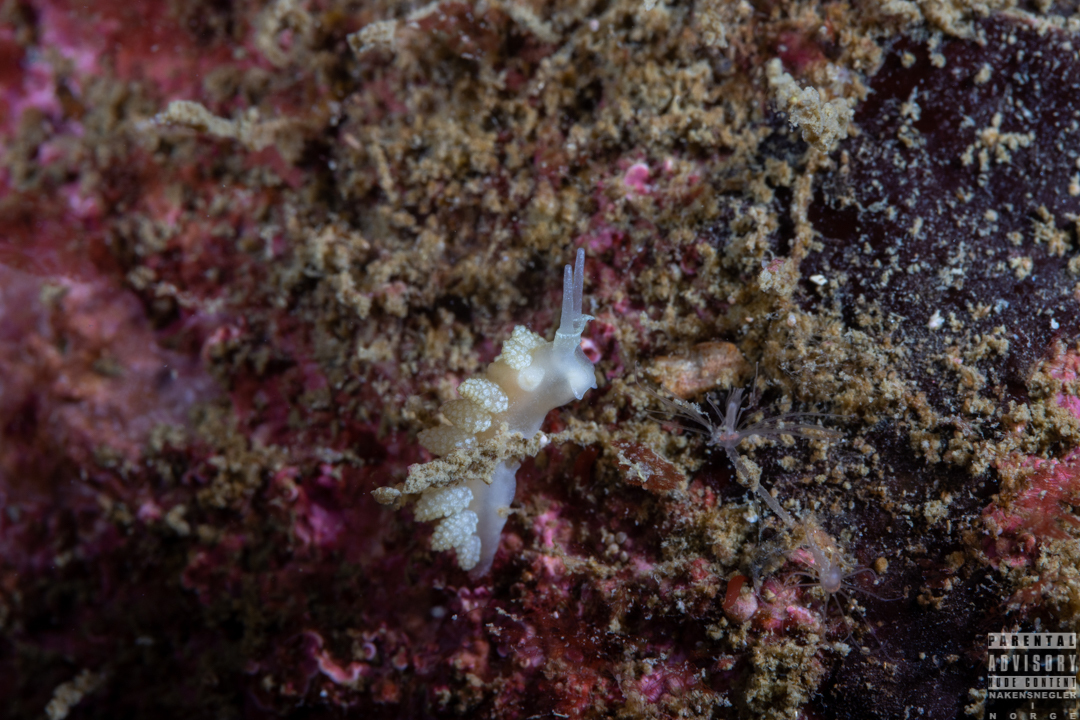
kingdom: Animalia
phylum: Mollusca
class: Gastropoda
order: Nudibranchia
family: Dotidae
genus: Doto
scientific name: Doto fragilis
